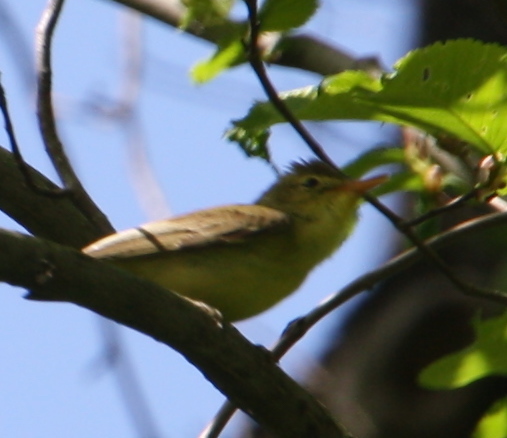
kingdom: Animalia
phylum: Chordata
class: Aves
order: Passeriformes
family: Acrocephalidae
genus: Hippolais
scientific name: Hippolais icterina
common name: Icterine warbler
